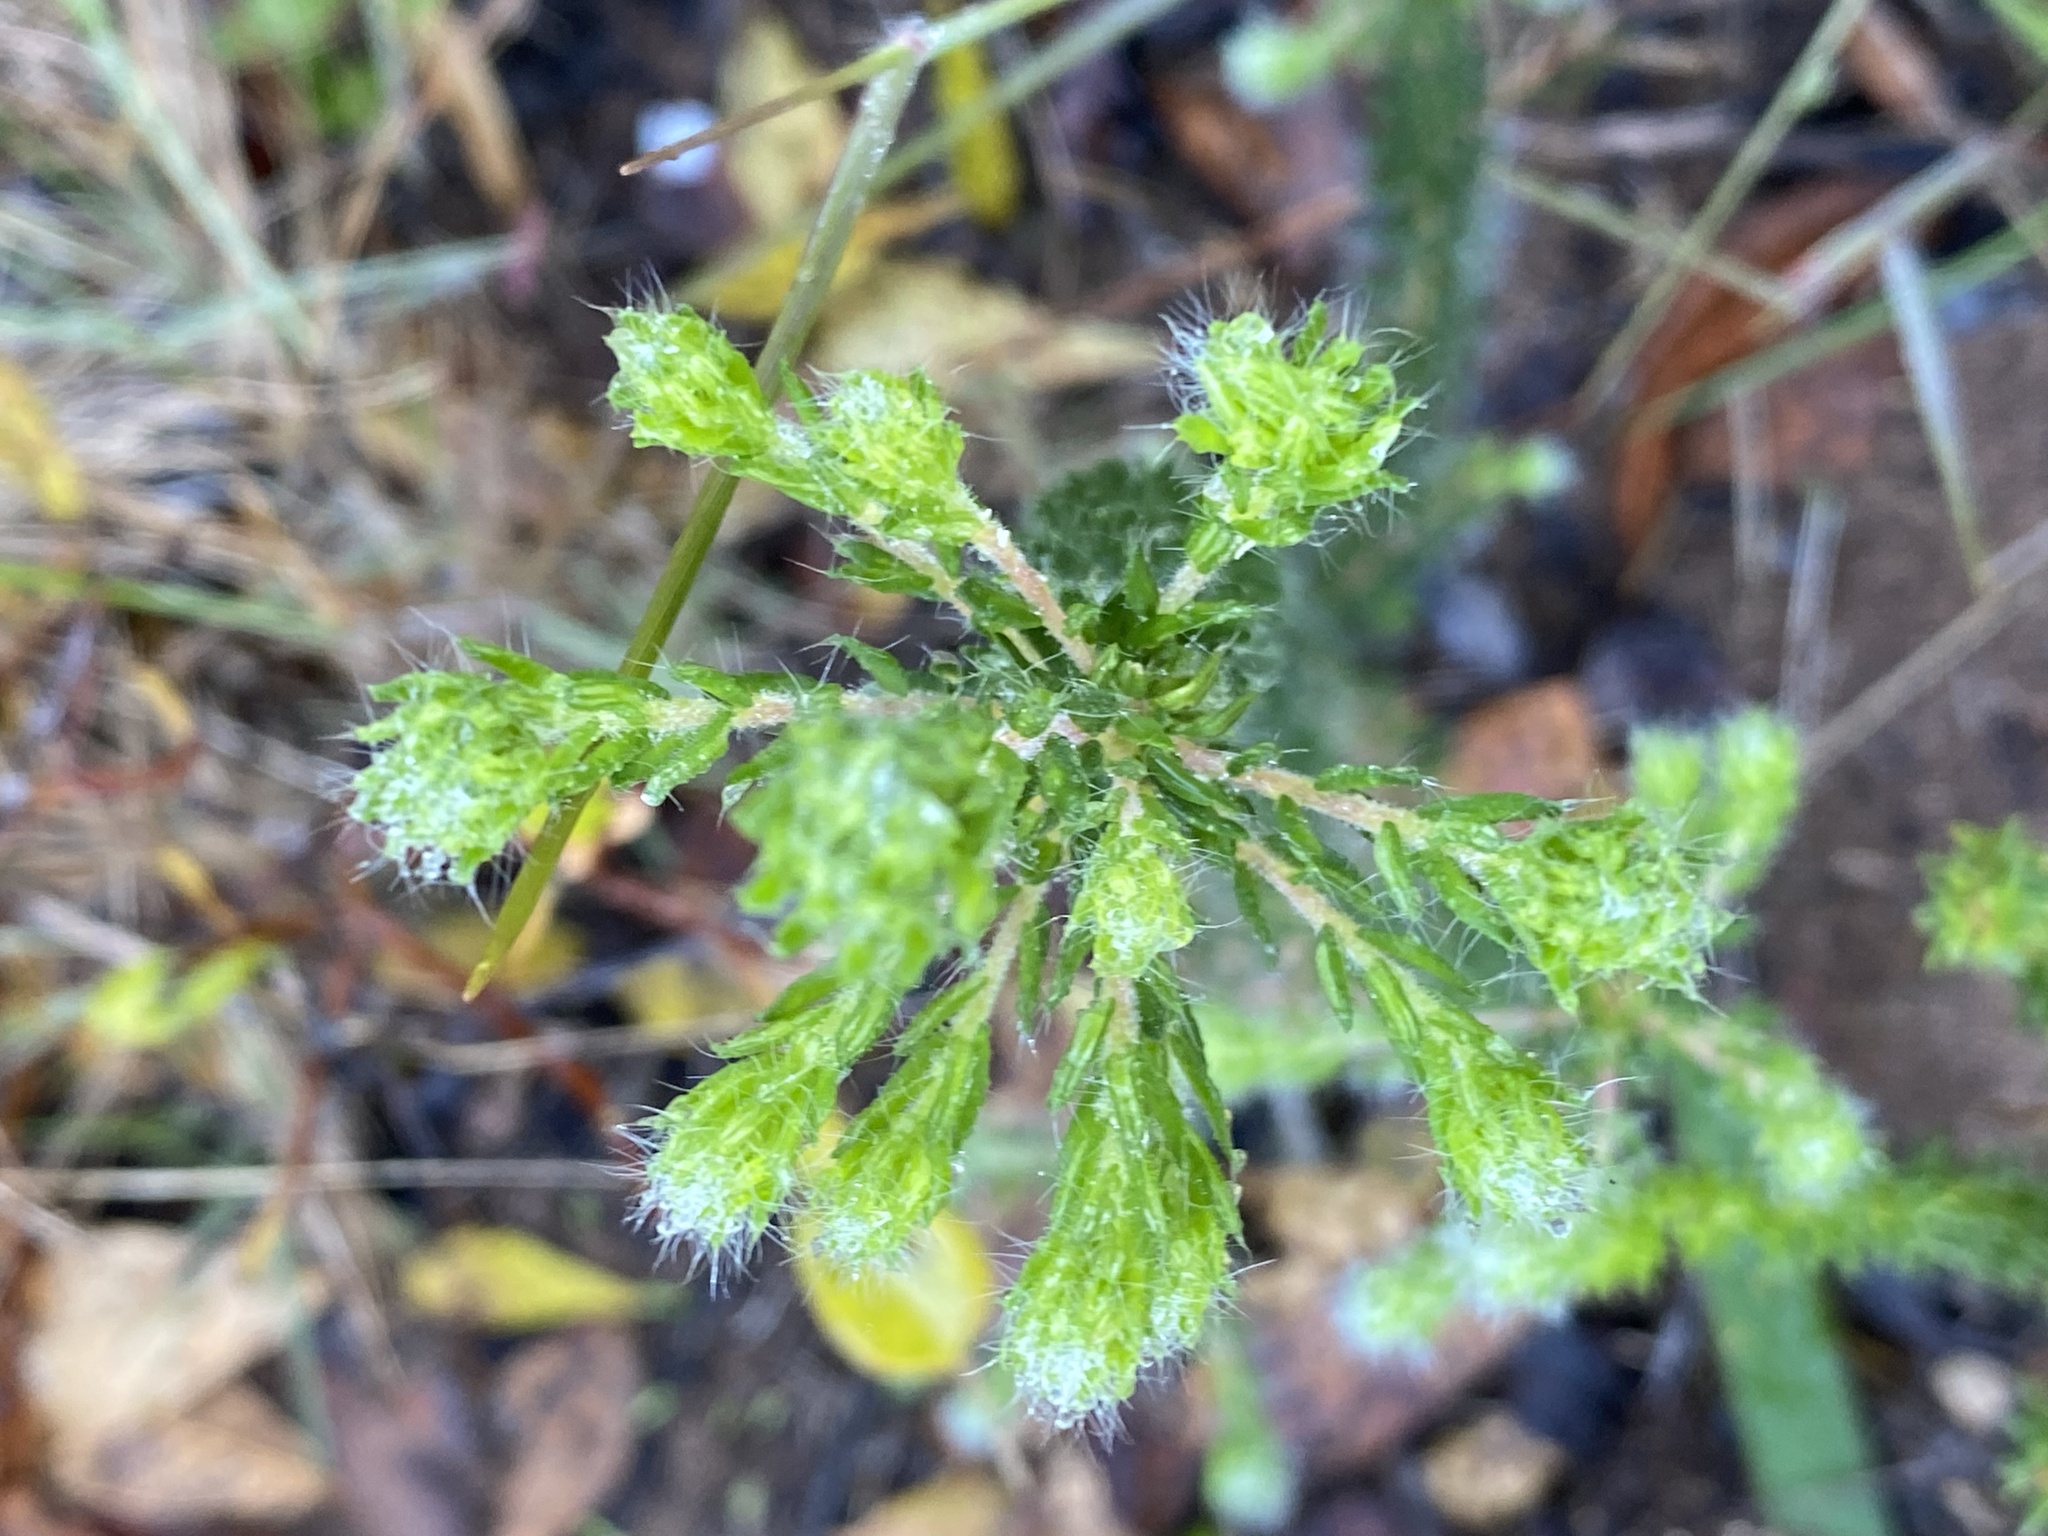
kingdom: Plantae
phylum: Tracheophyta
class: Magnoliopsida
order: Sapindales
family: Rutaceae
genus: Agathosma
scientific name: Agathosma serpyllacea
